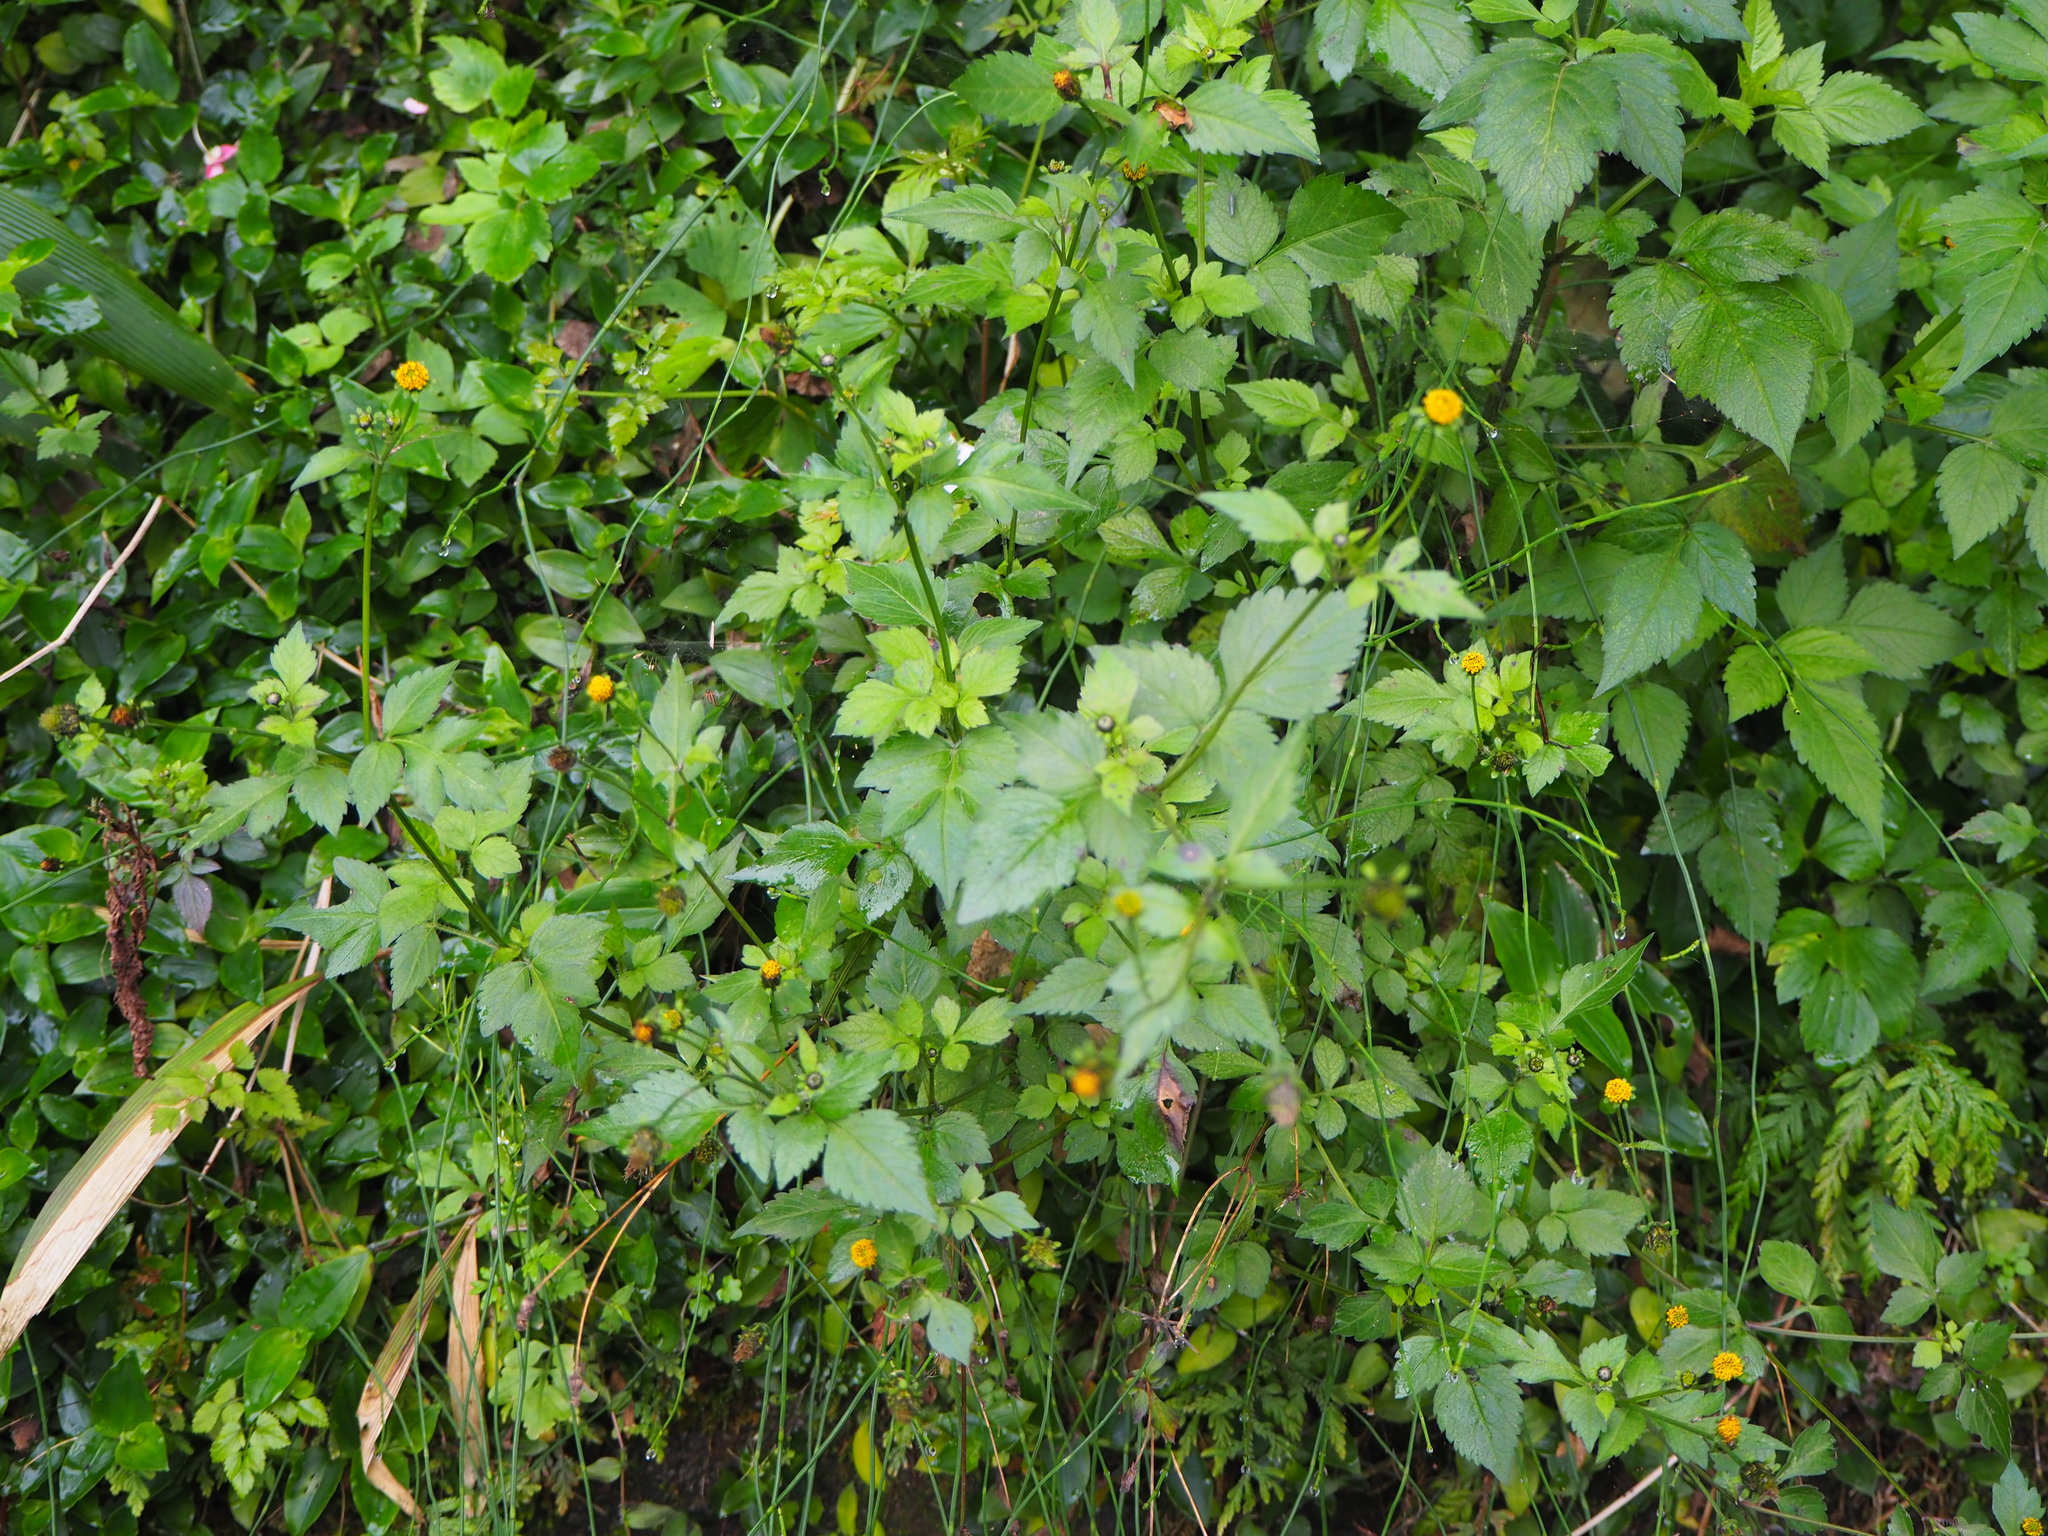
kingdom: Plantae
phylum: Tracheophyta
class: Magnoliopsida
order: Asterales
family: Asteraceae
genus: Bidens
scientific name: Bidens pilosa
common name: Black-jack
